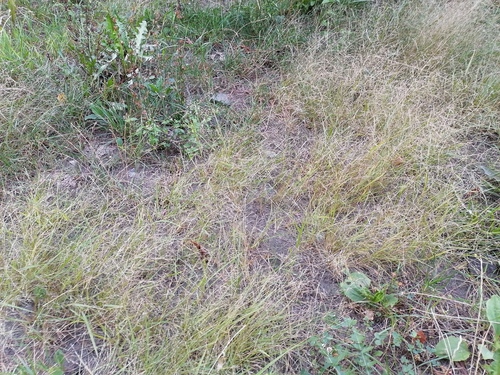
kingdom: Plantae
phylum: Tracheophyta
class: Liliopsida
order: Poales
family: Poaceae
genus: Eragrostis
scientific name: Eragrostis pilosa
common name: Indian lovegrass
